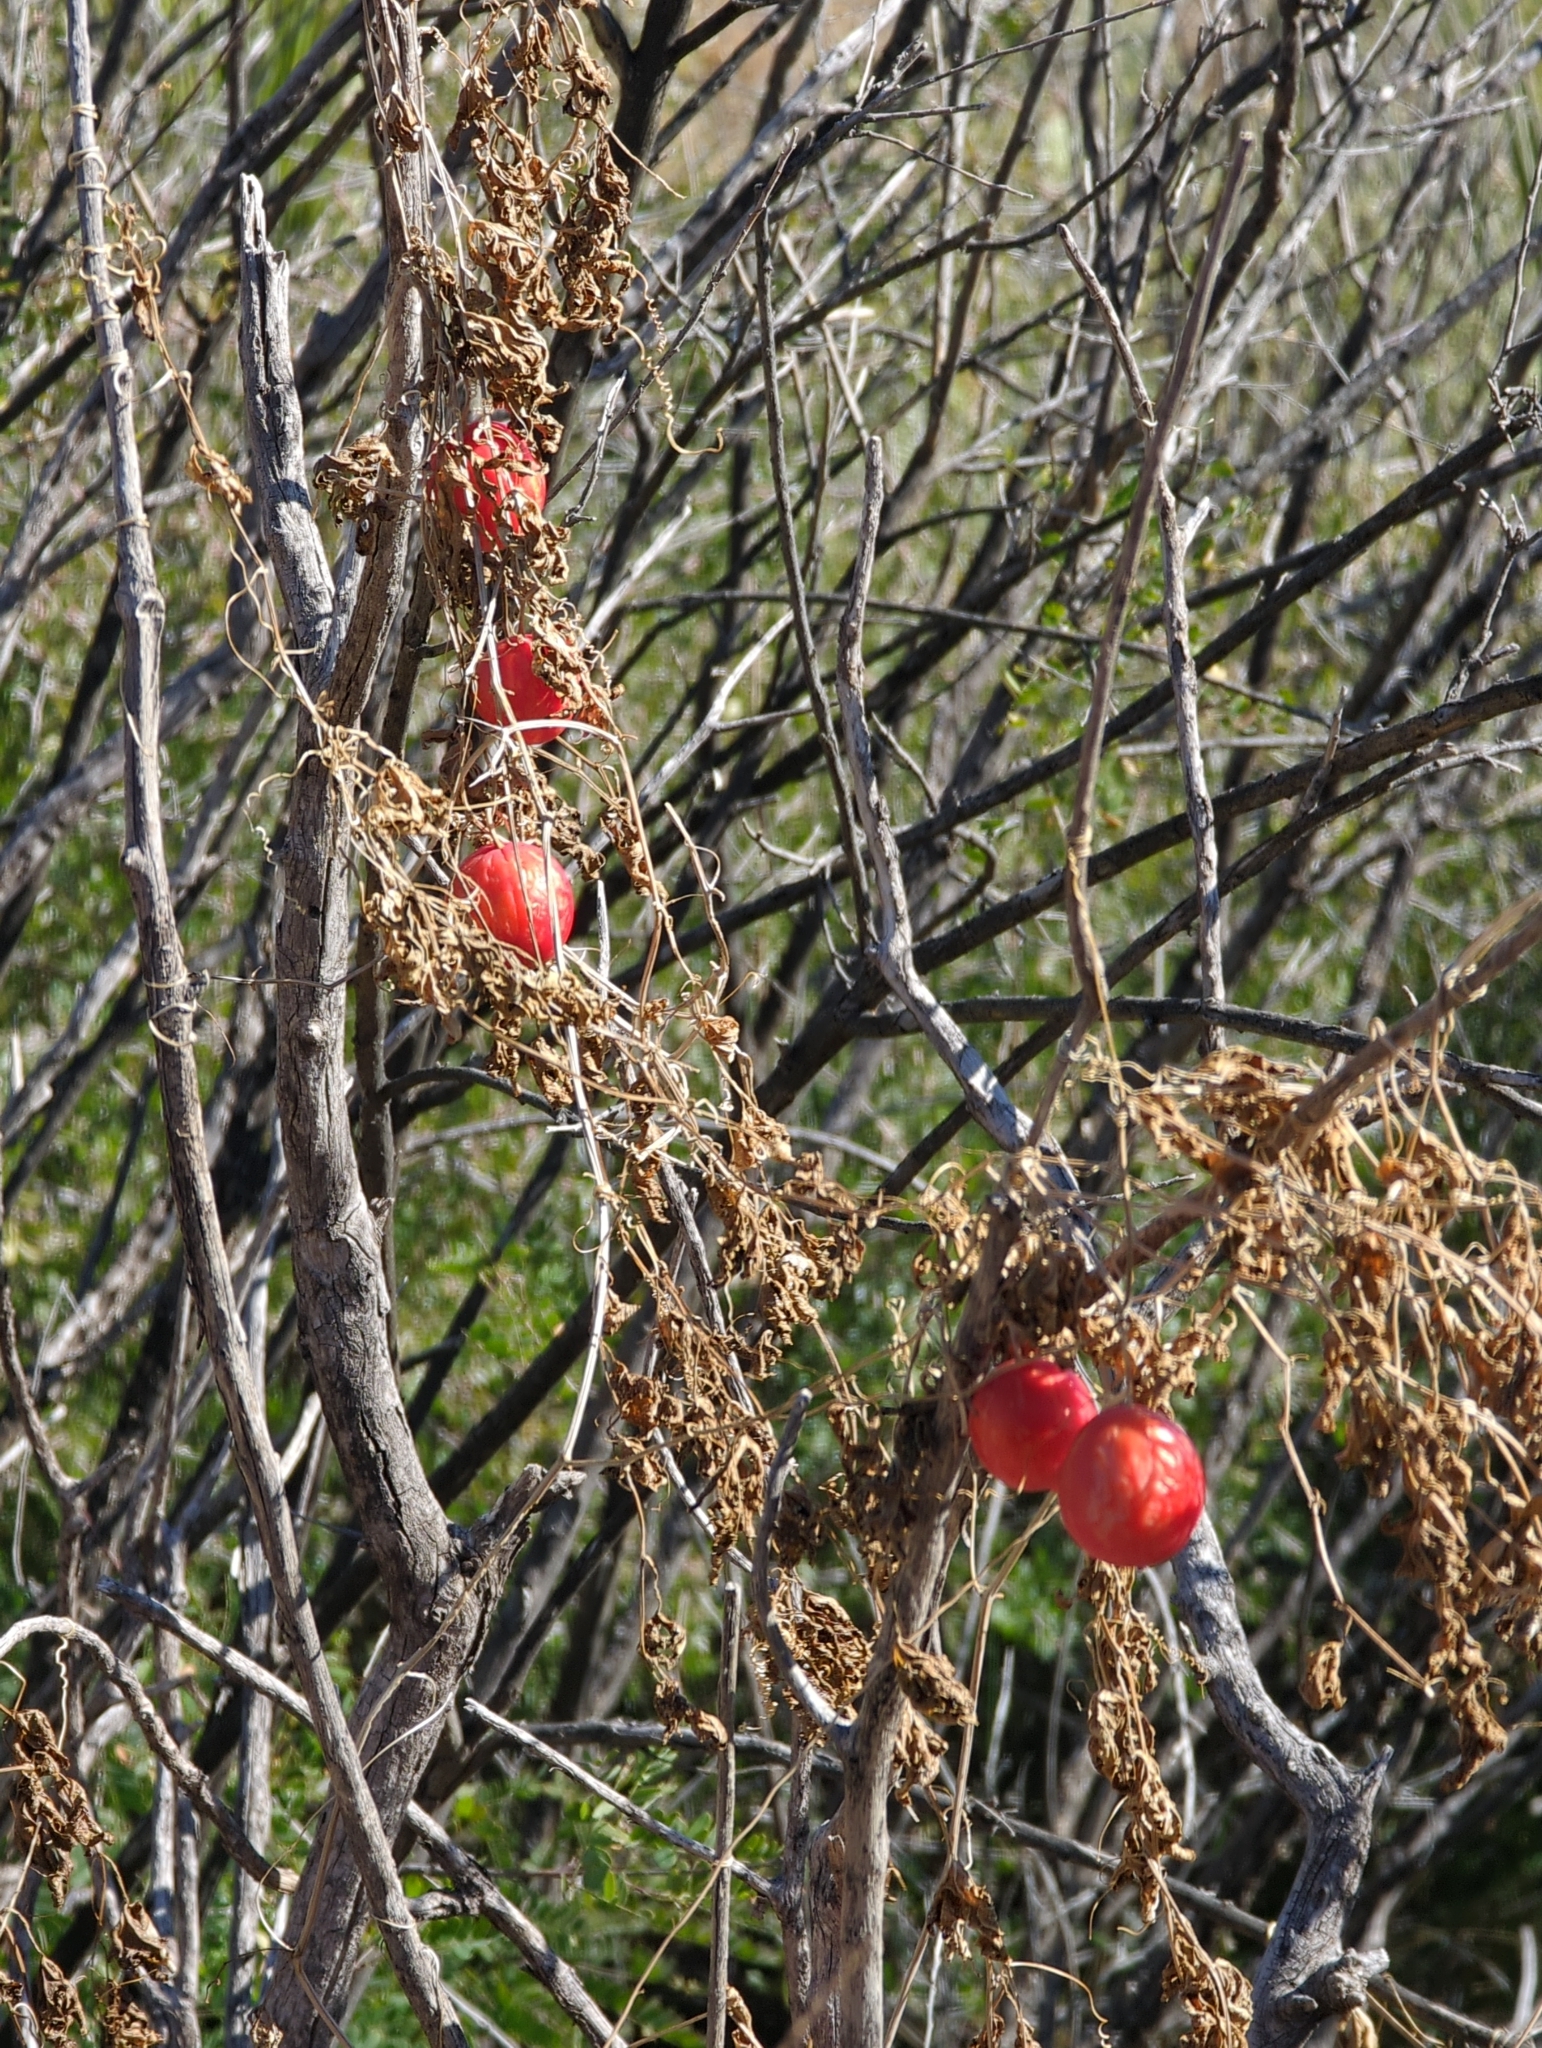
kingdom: Plantae
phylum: Tracheophyta
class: Magnoliopsida
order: Cucurbitales
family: Cucurbitaceae
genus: Ibervillea
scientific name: Ibervillea tenuisecta
